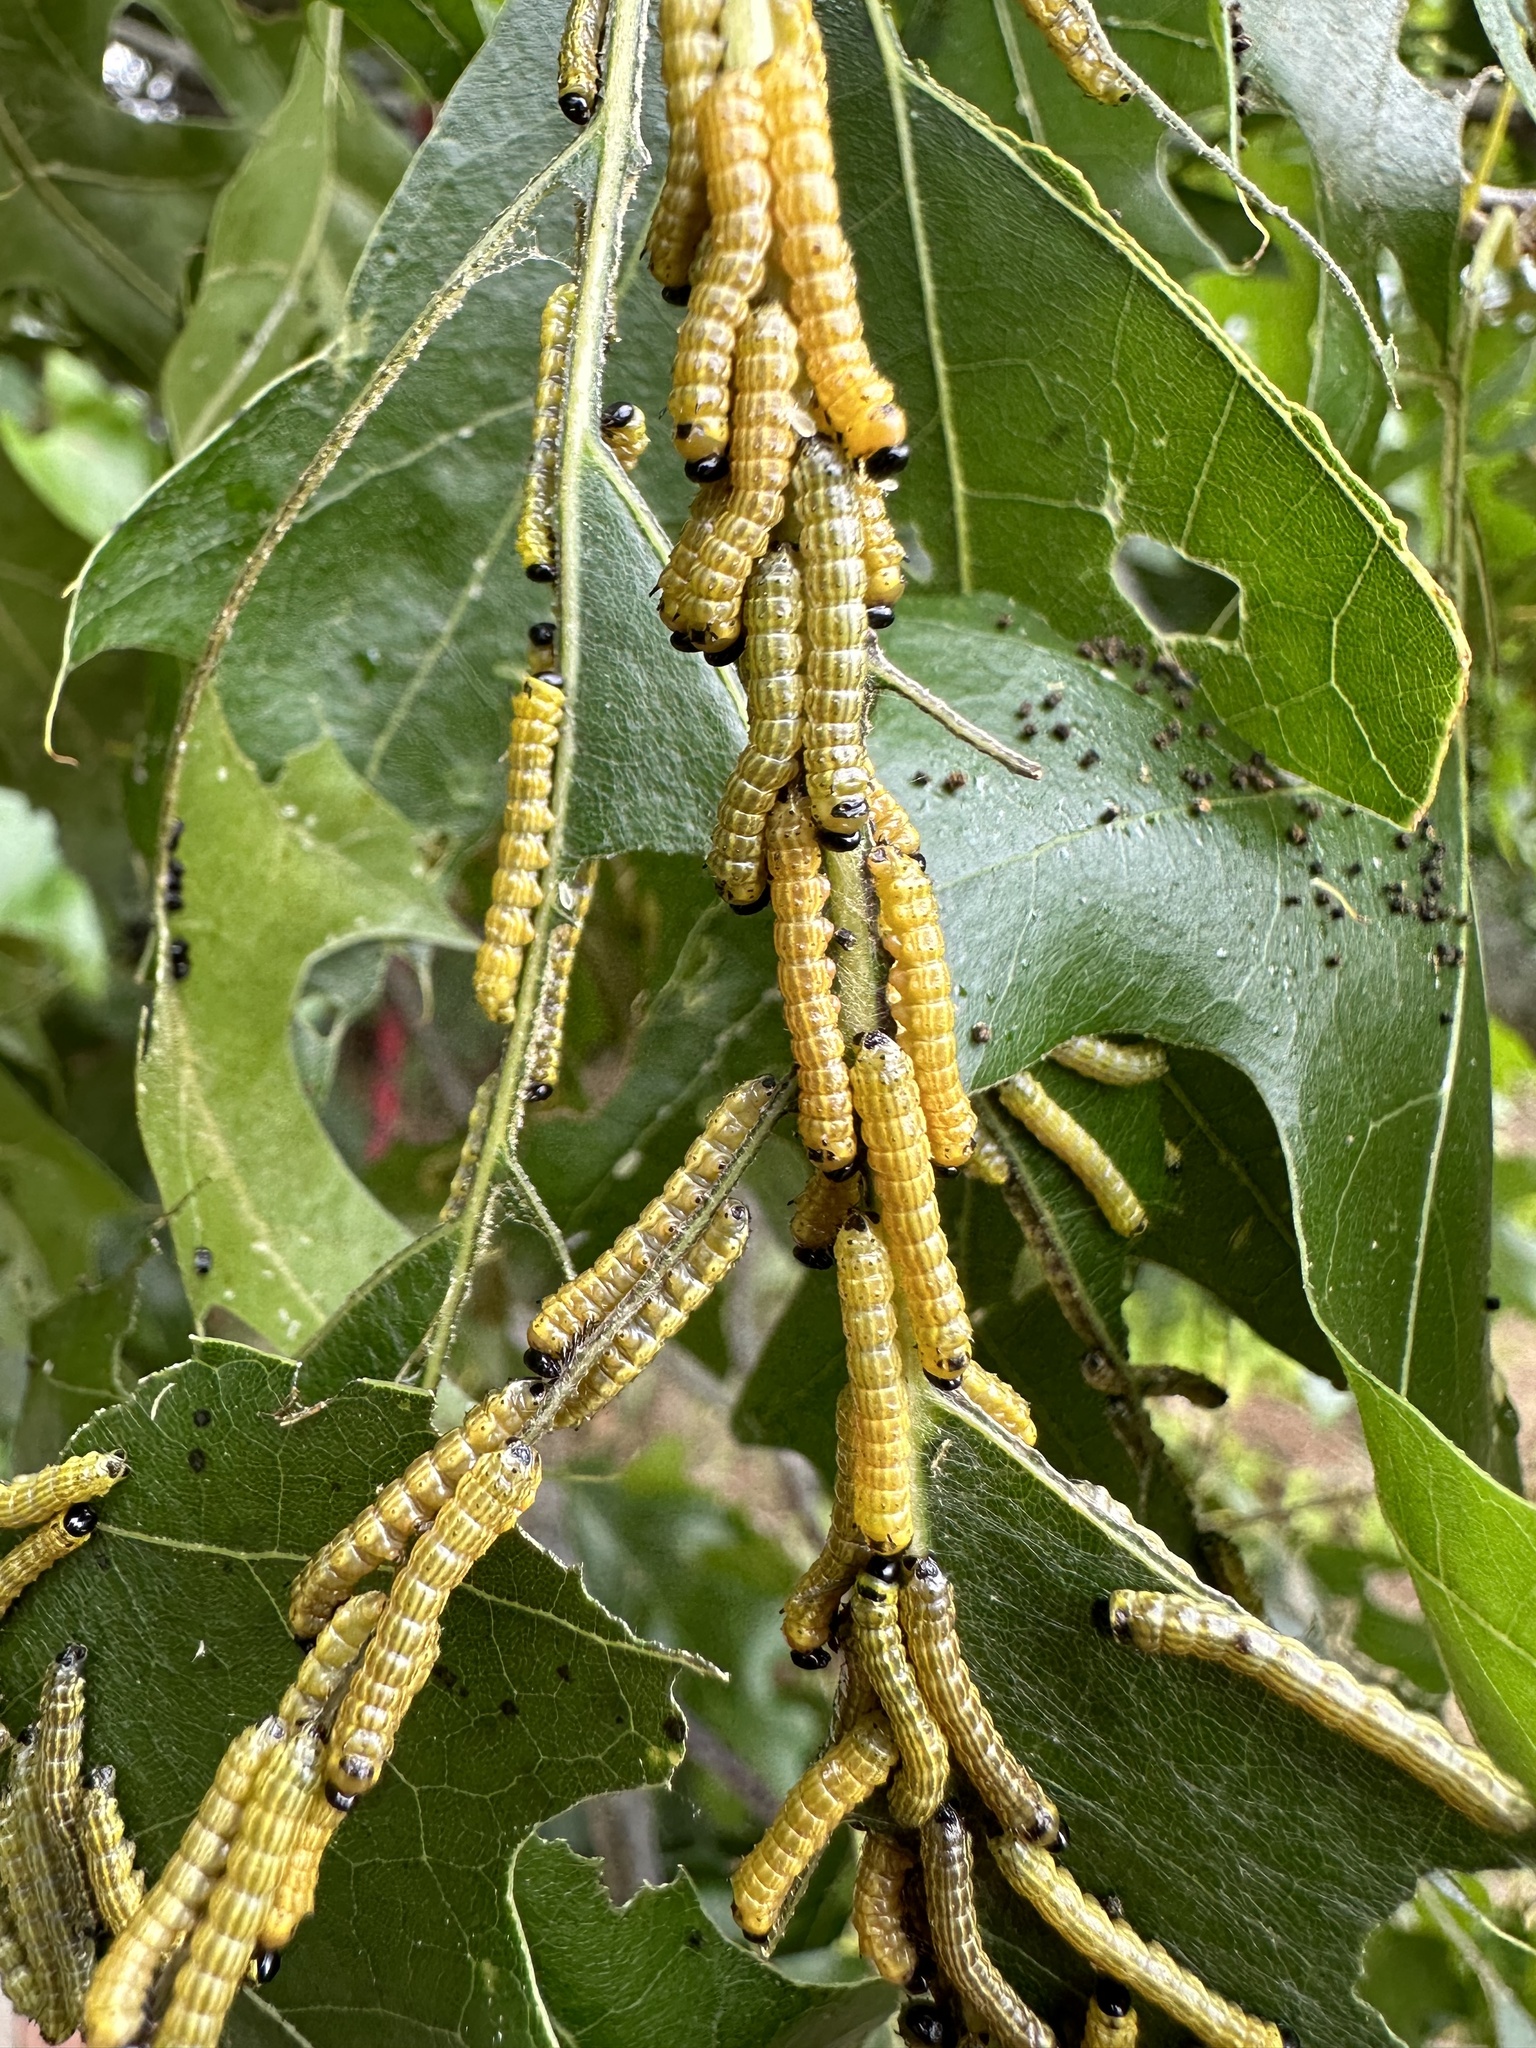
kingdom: Animalia
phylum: Arthropoda
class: Insecta
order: Lepidoptera
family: Saturniidae
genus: Anisota
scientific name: Anisota finlaysoni
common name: Hornless oakworm moth
